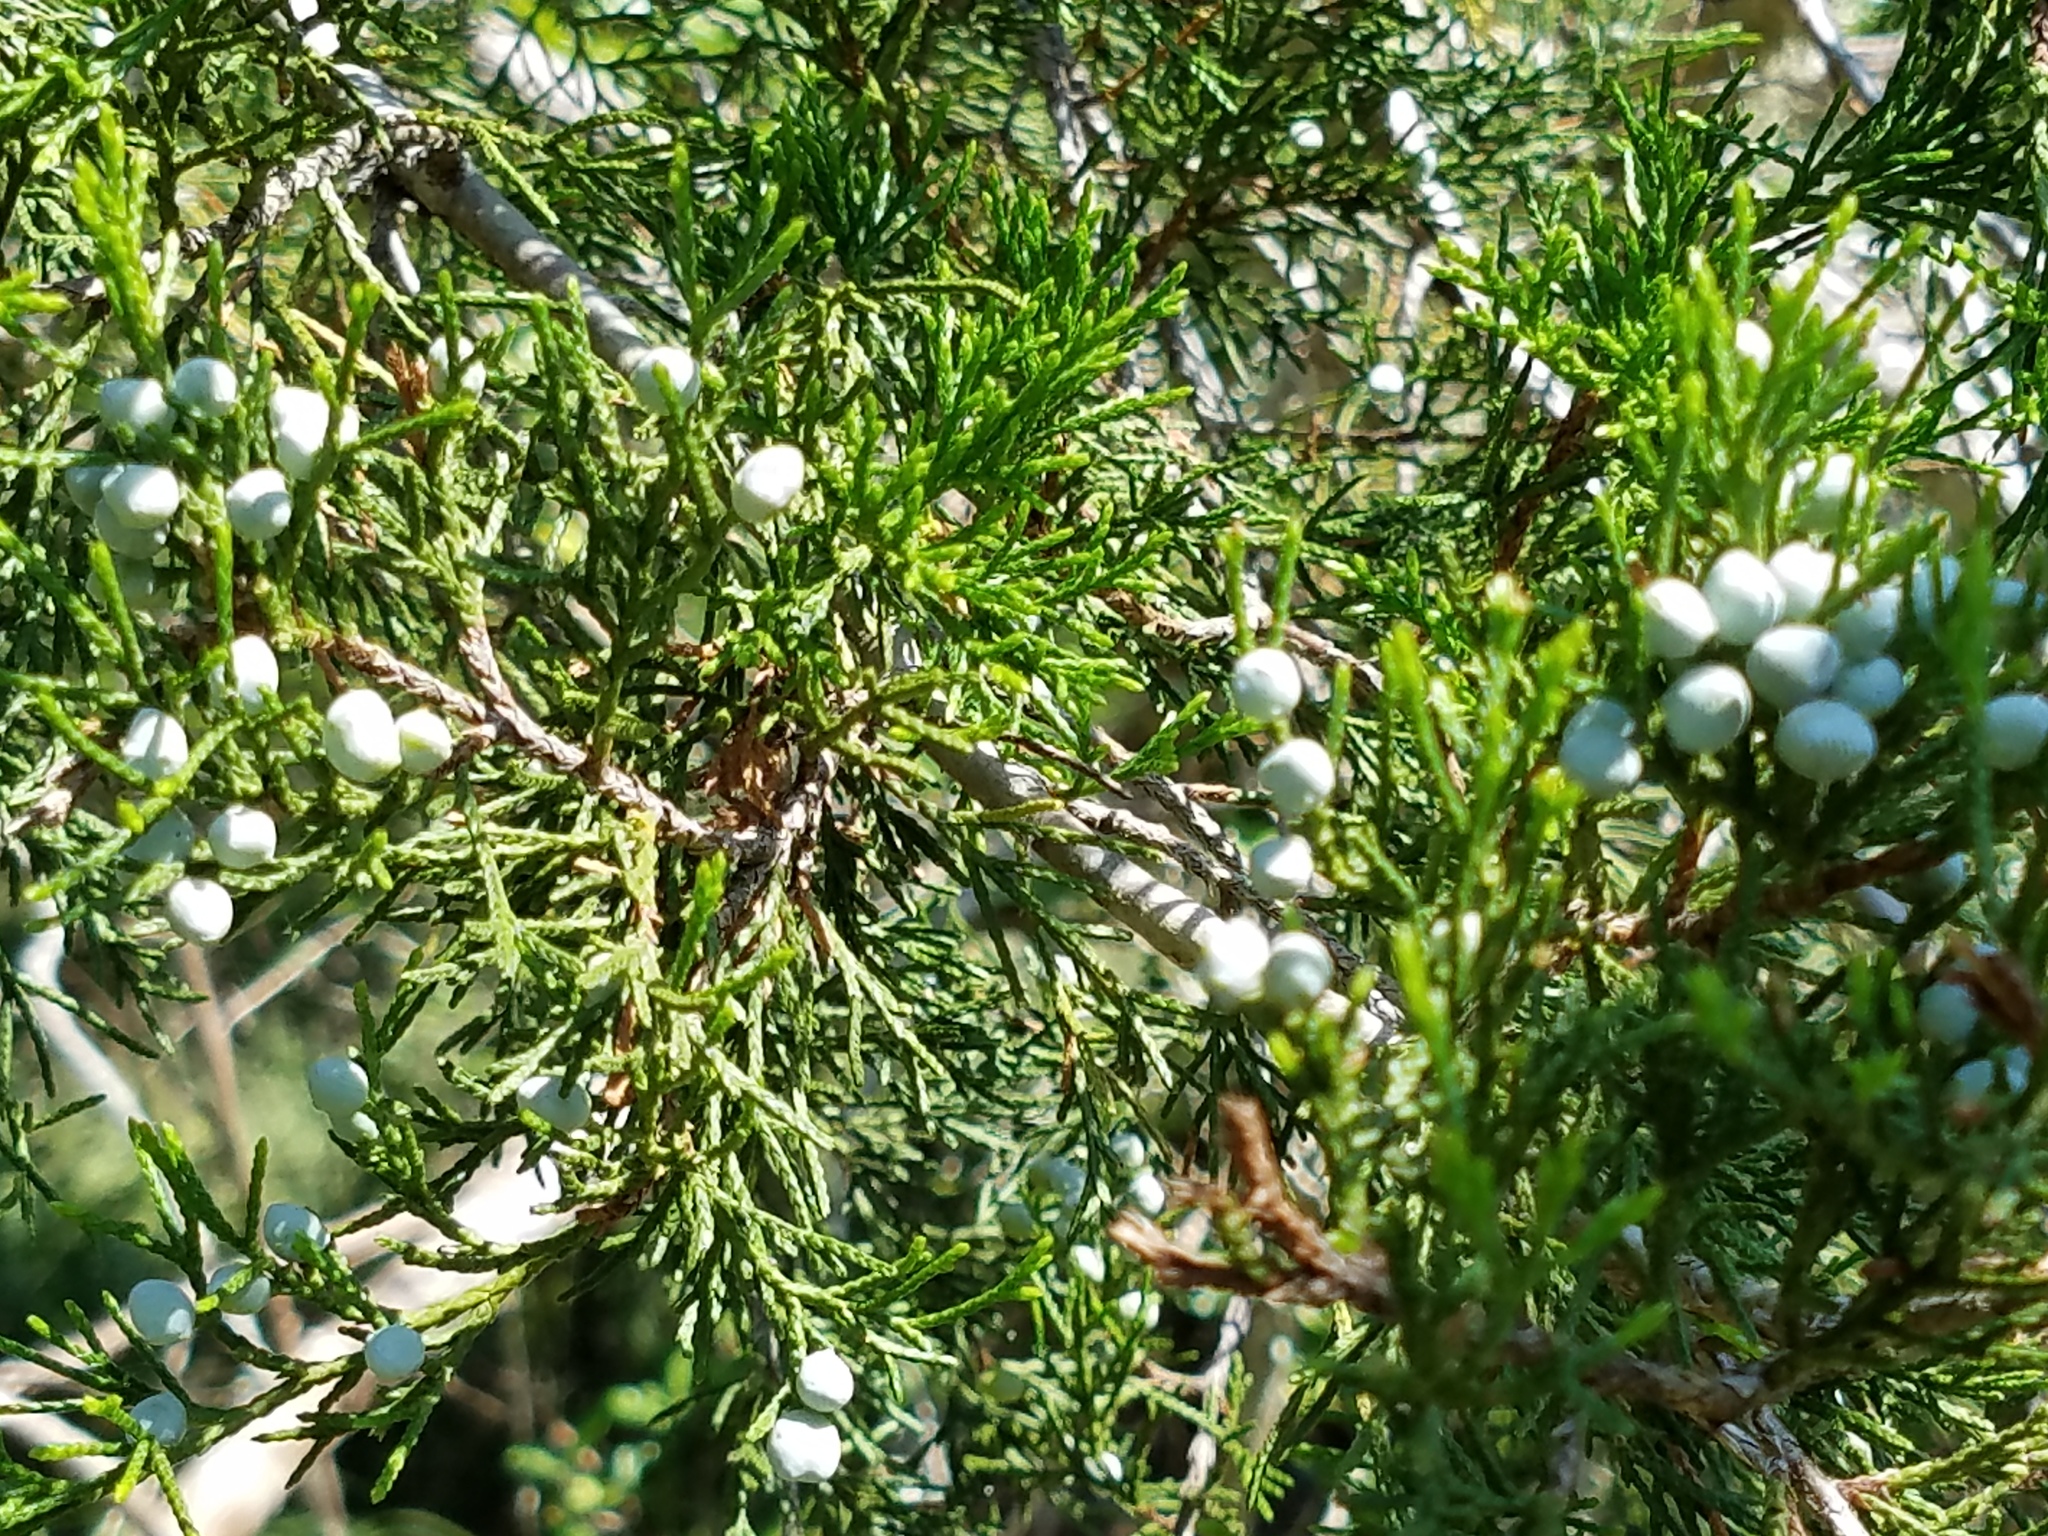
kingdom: Plantae
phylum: Tracheophyta
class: Pinopsida
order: Pinales
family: Cupressaceae
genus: Juniperus
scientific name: Juniperus virginiana
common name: Red juniper
